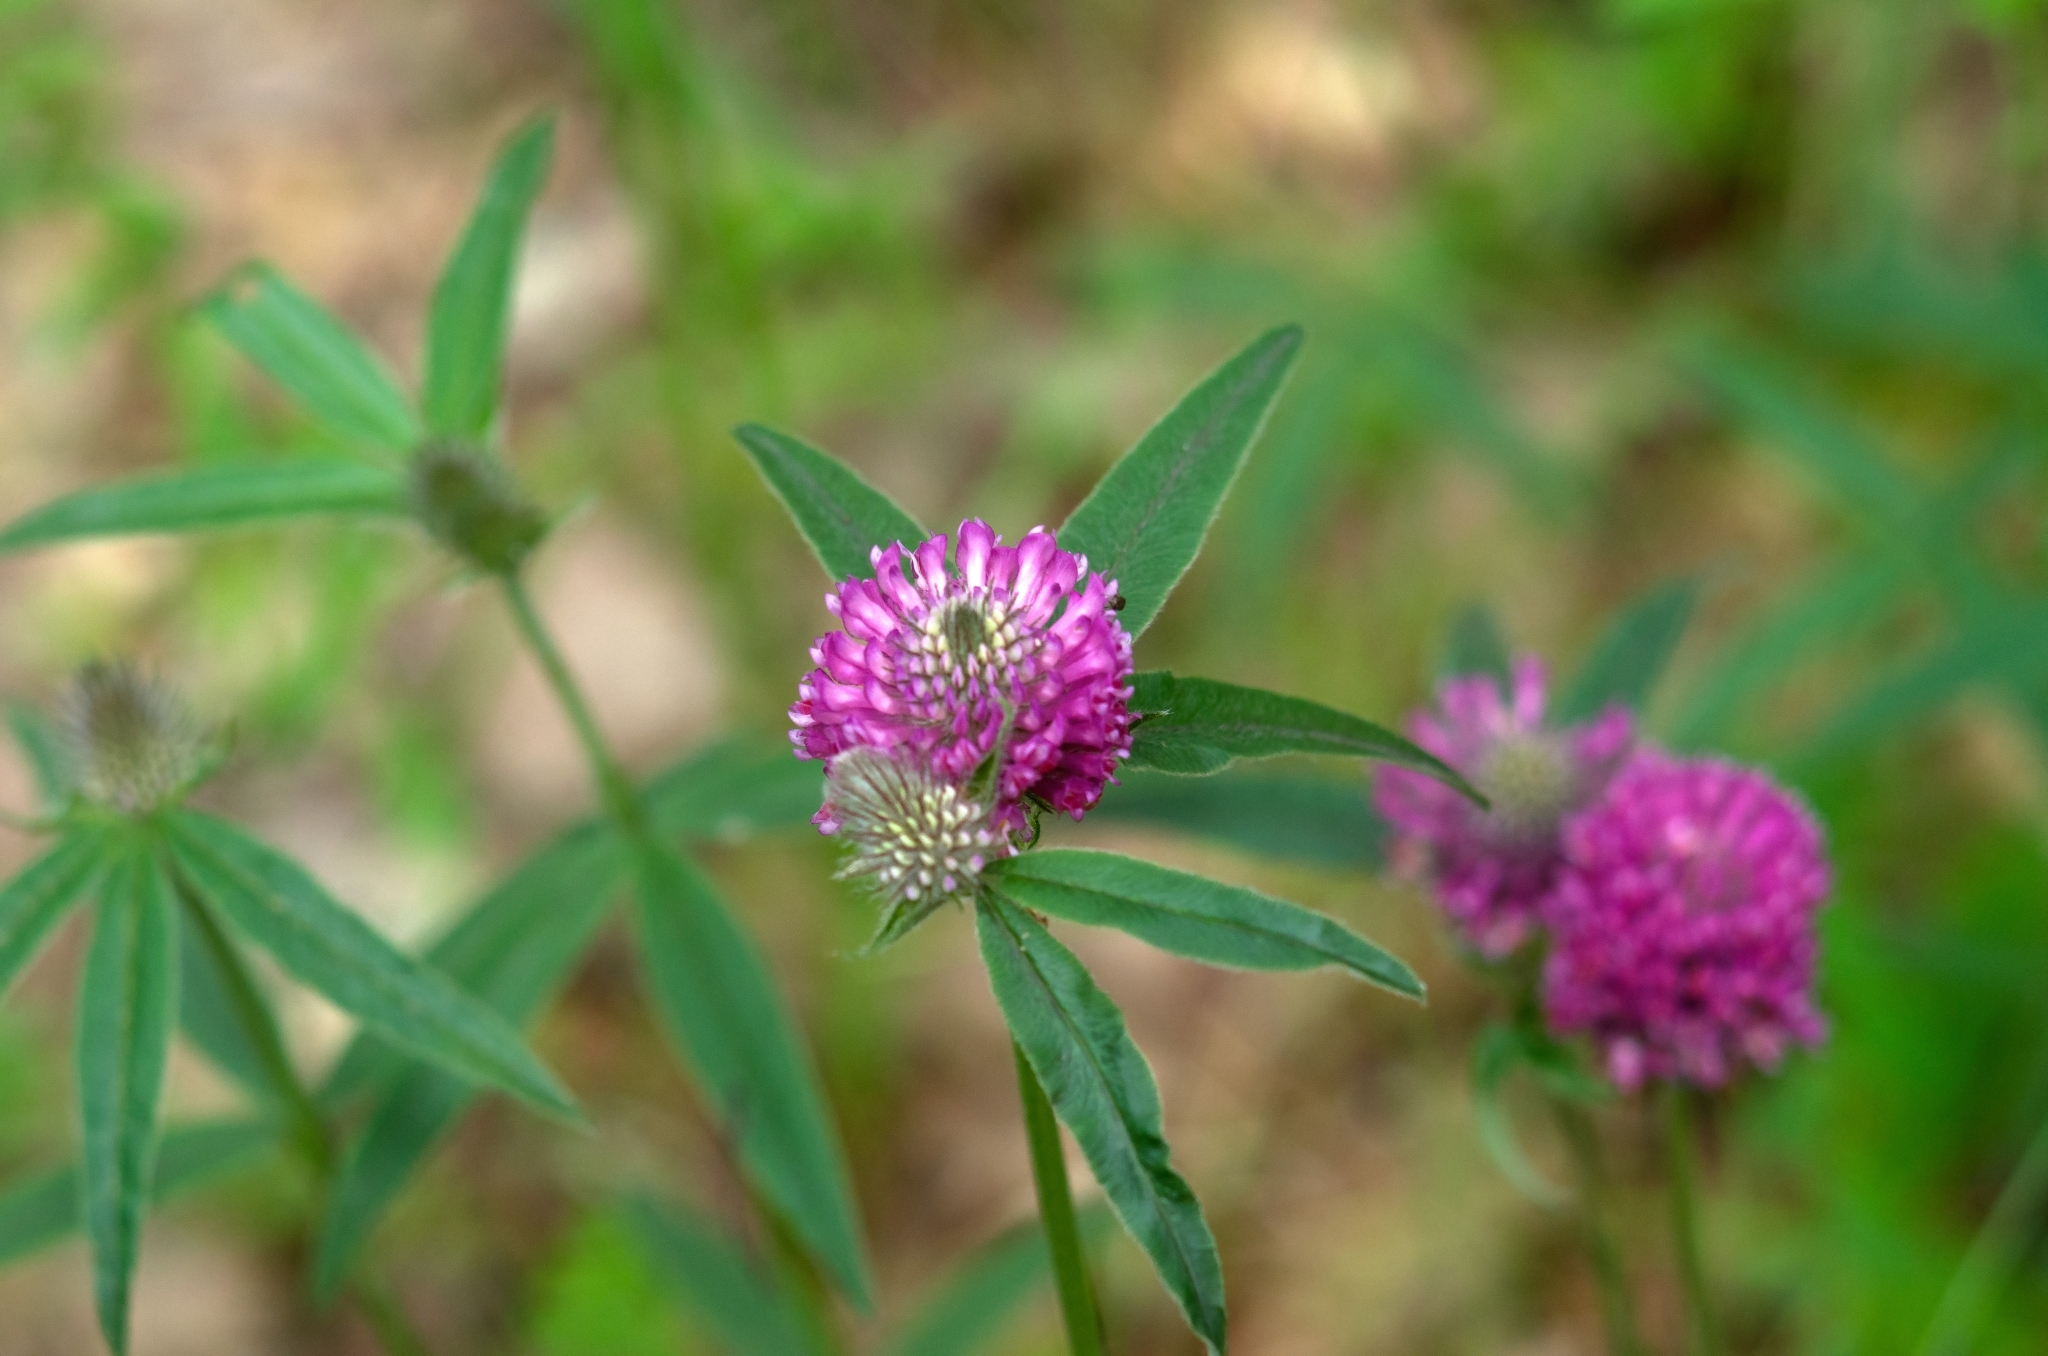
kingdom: Plantae
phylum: Tracheophyta
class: Magnoliopsida
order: Fabales
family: Fabaceae
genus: Trifolium
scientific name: Trifolium alpestre
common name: Owl-head clover
